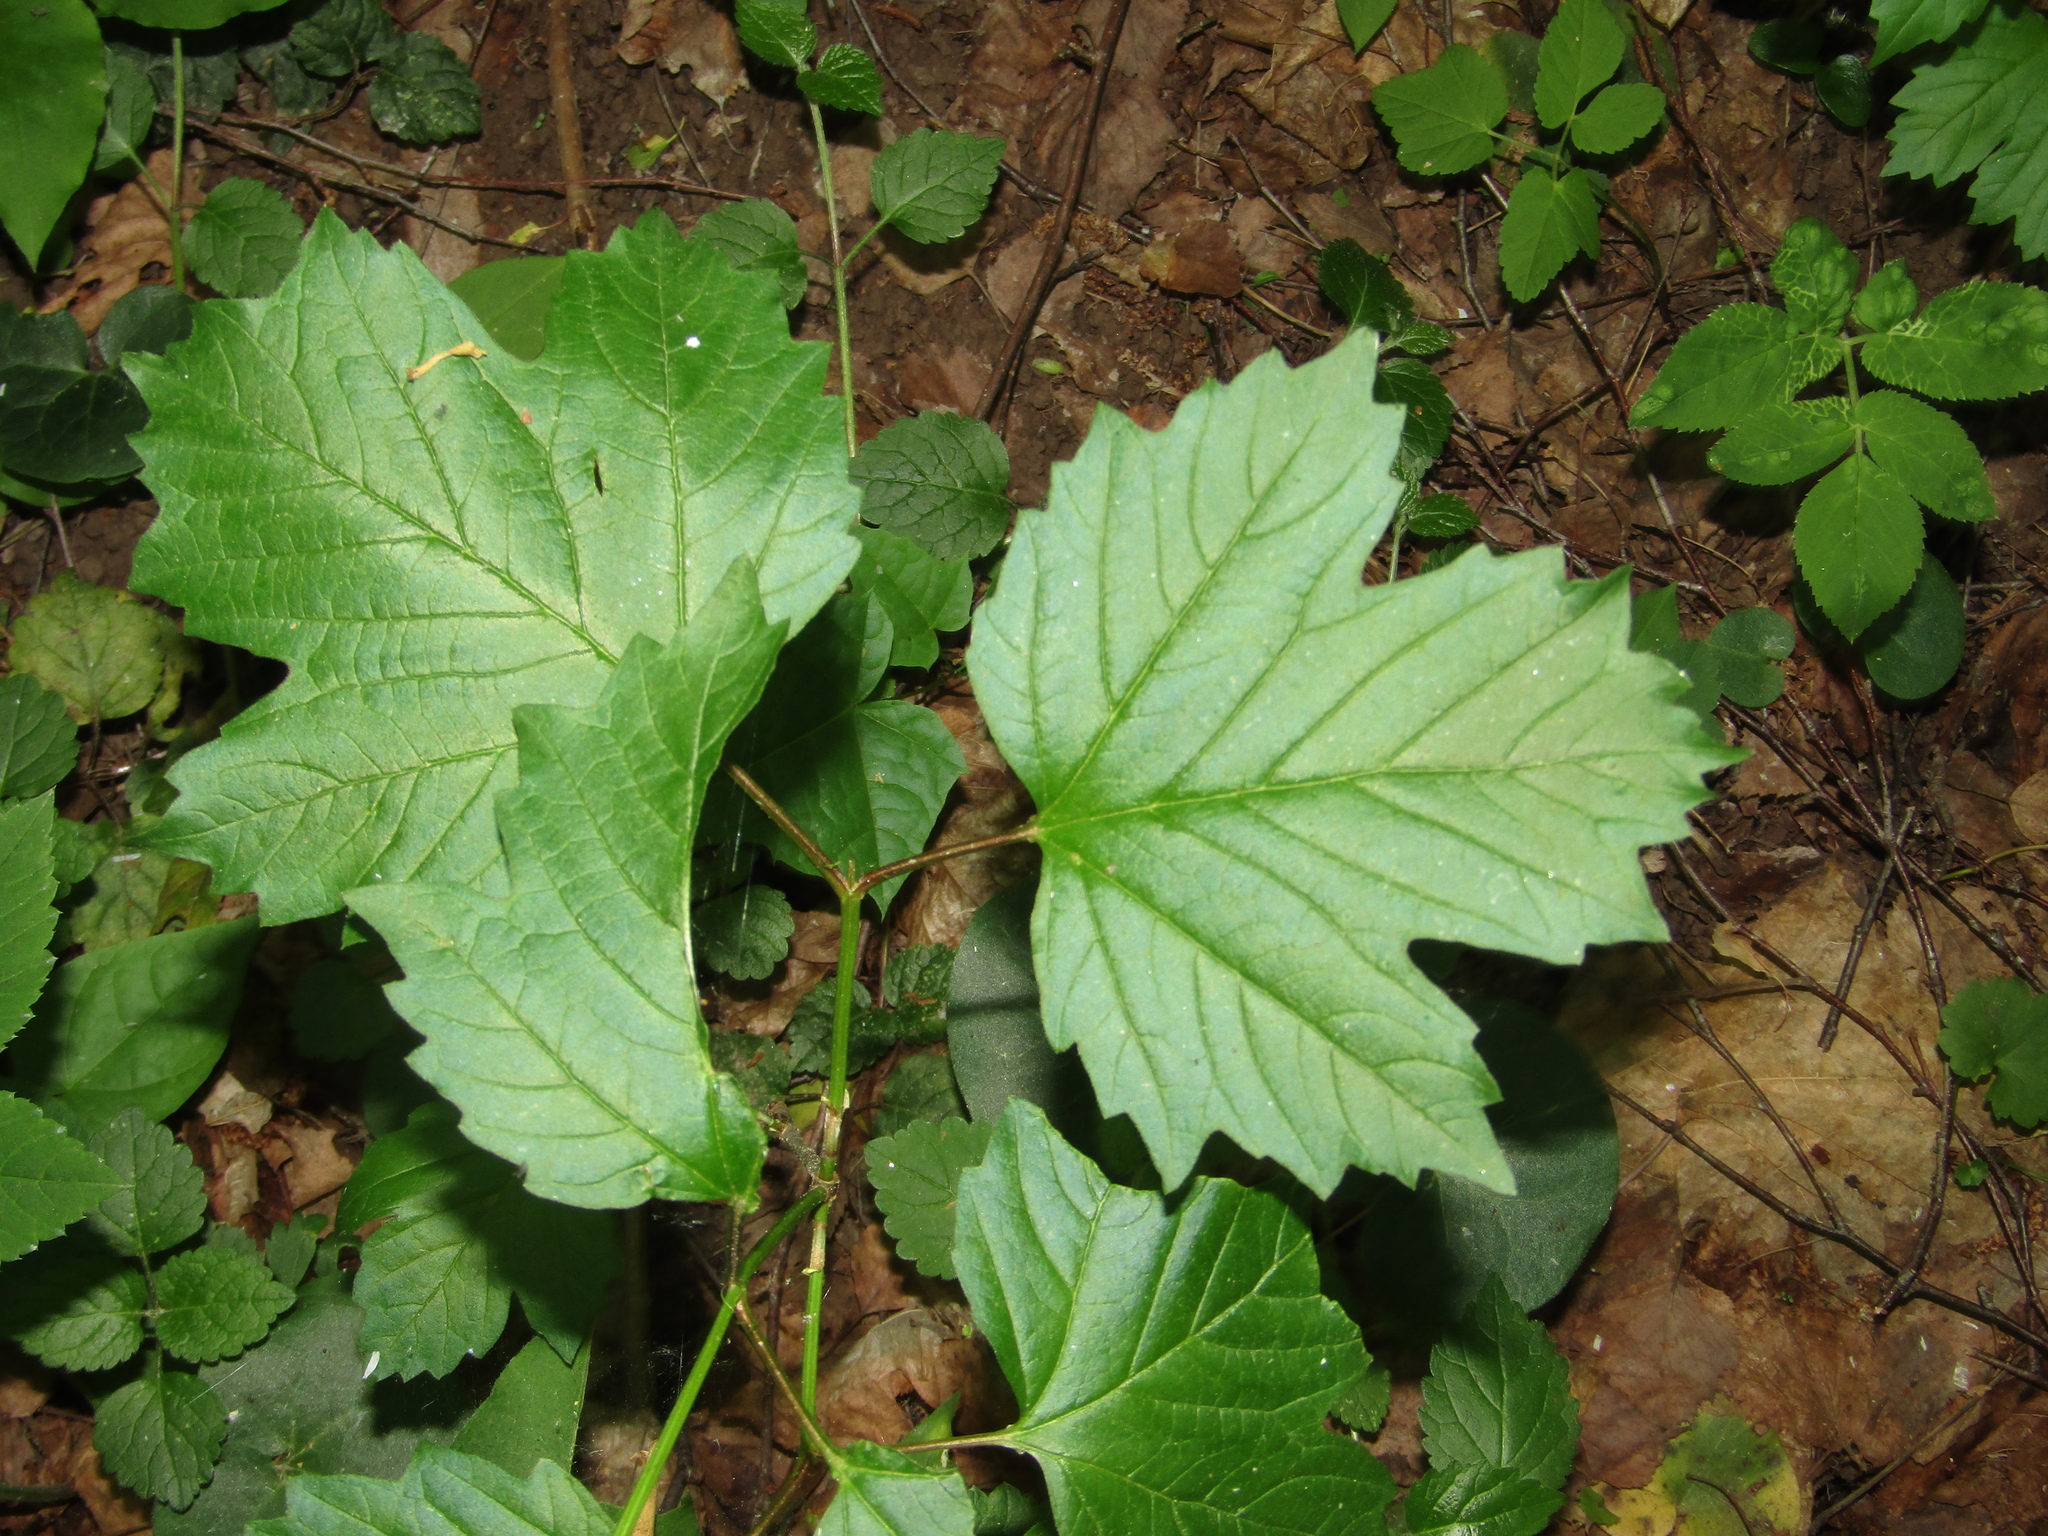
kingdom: Plantae
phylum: Tracheophyta
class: Magnoliopsida
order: Dipsacales
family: Viburnaceae
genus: Viburnum
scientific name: Viburnum opulus
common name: Guelder-rose
